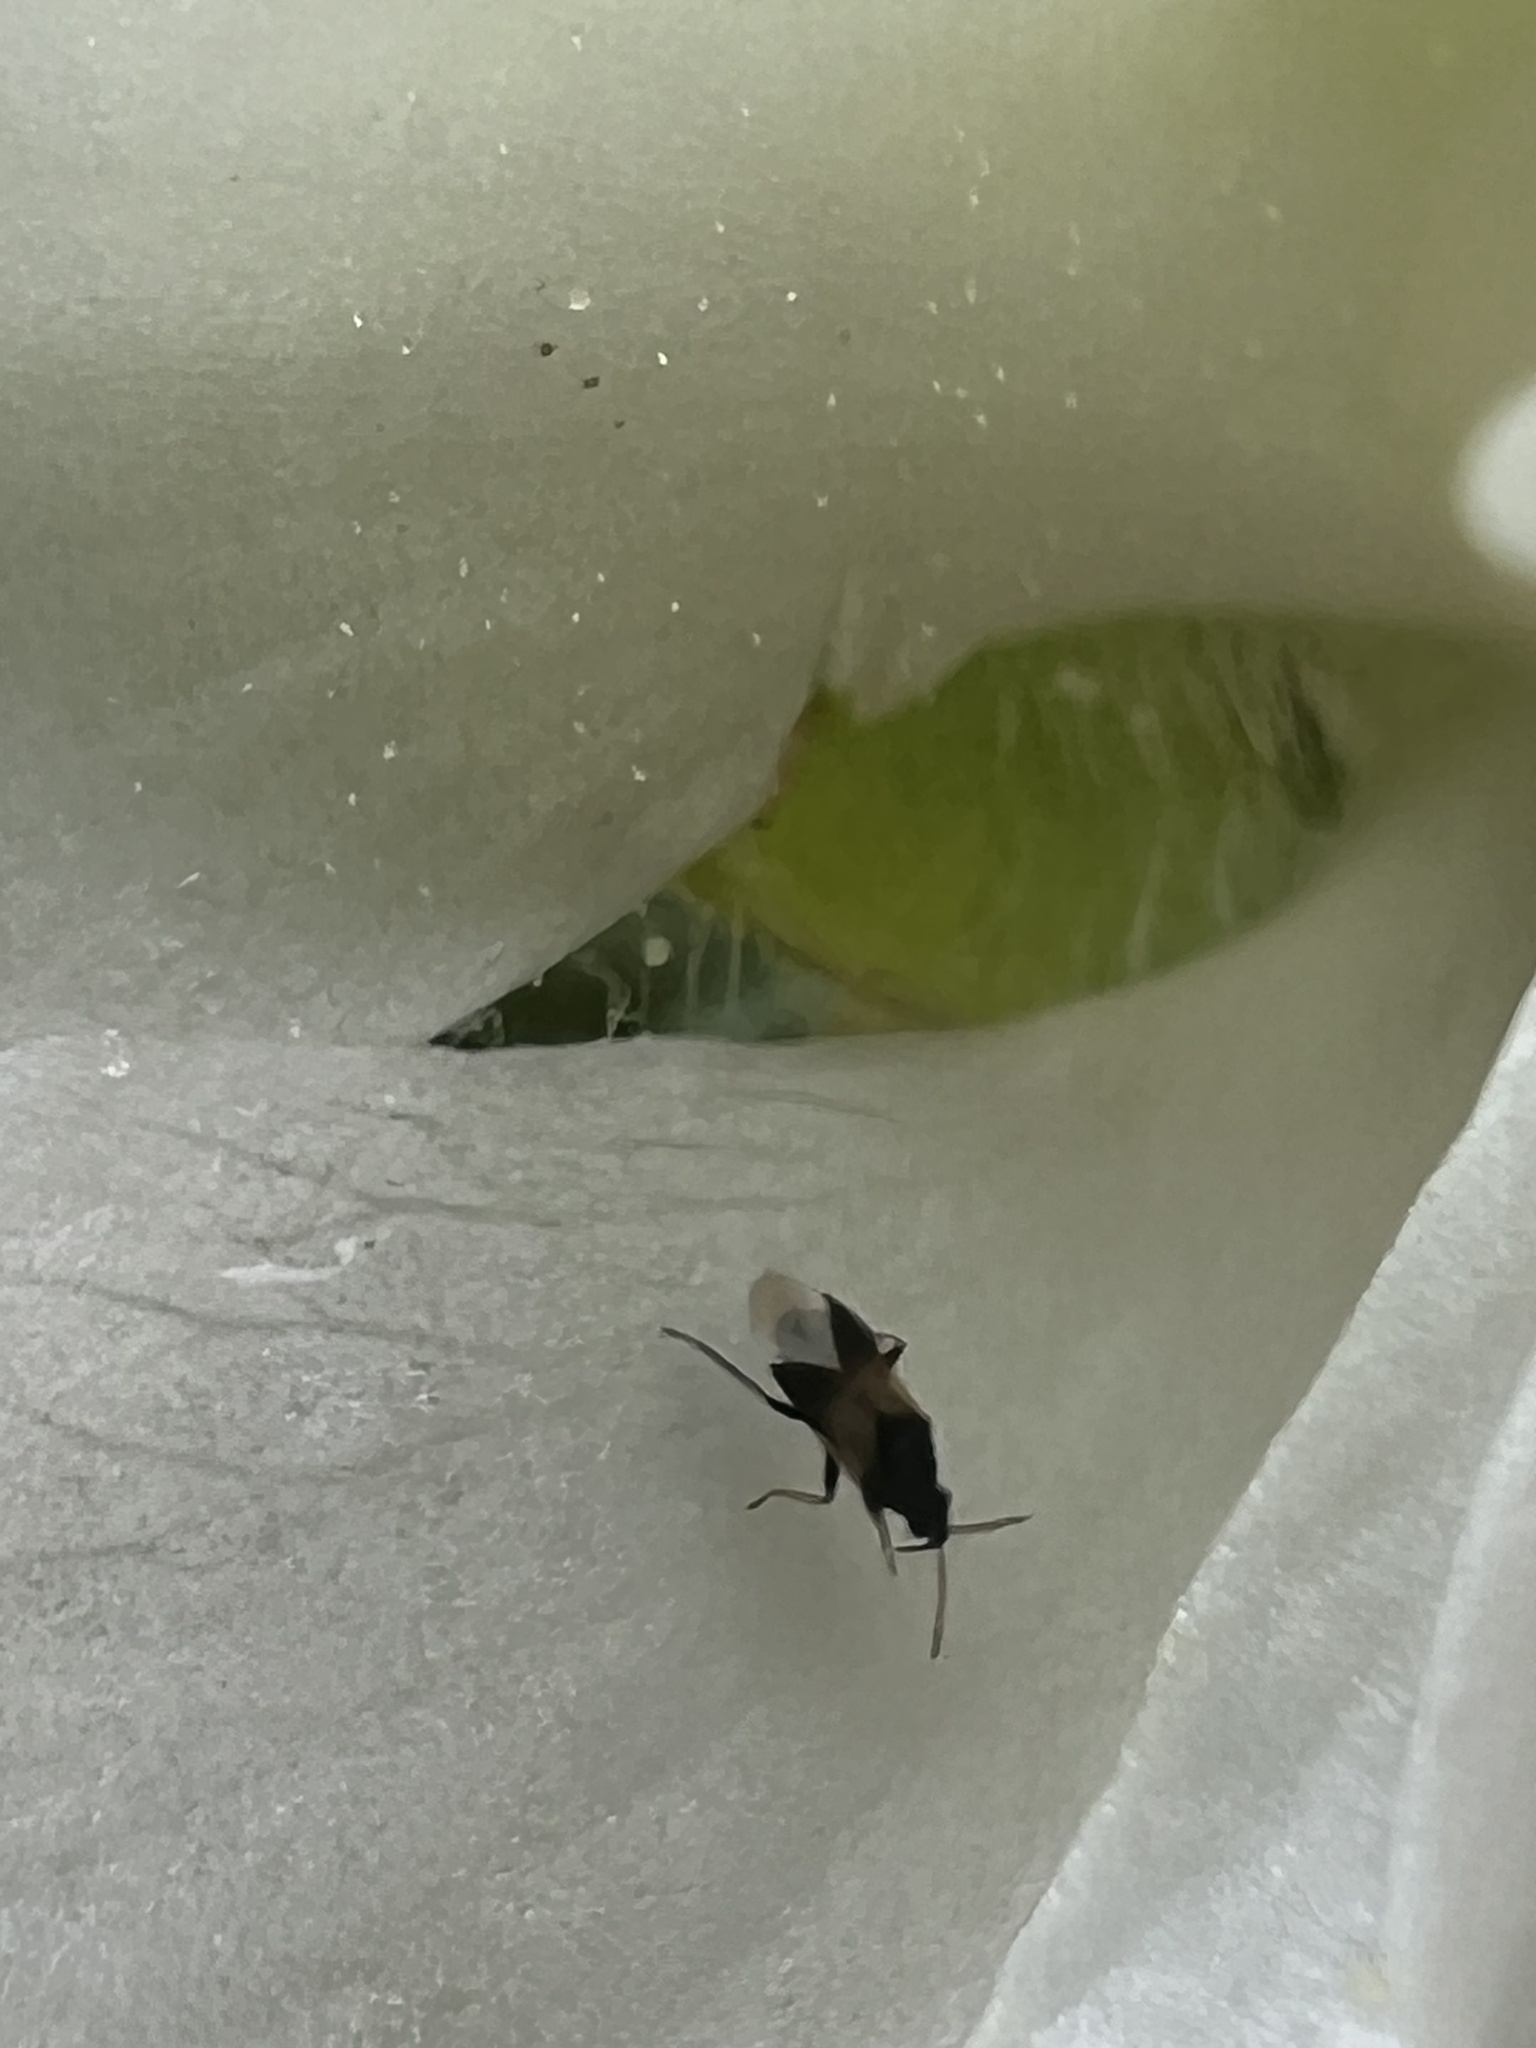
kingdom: Animalia
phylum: Arthropoda
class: Insecta
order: Hemiptera
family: Anthocoridae
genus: Orius
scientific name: Orius insidiosus
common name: Insidious flower bug
